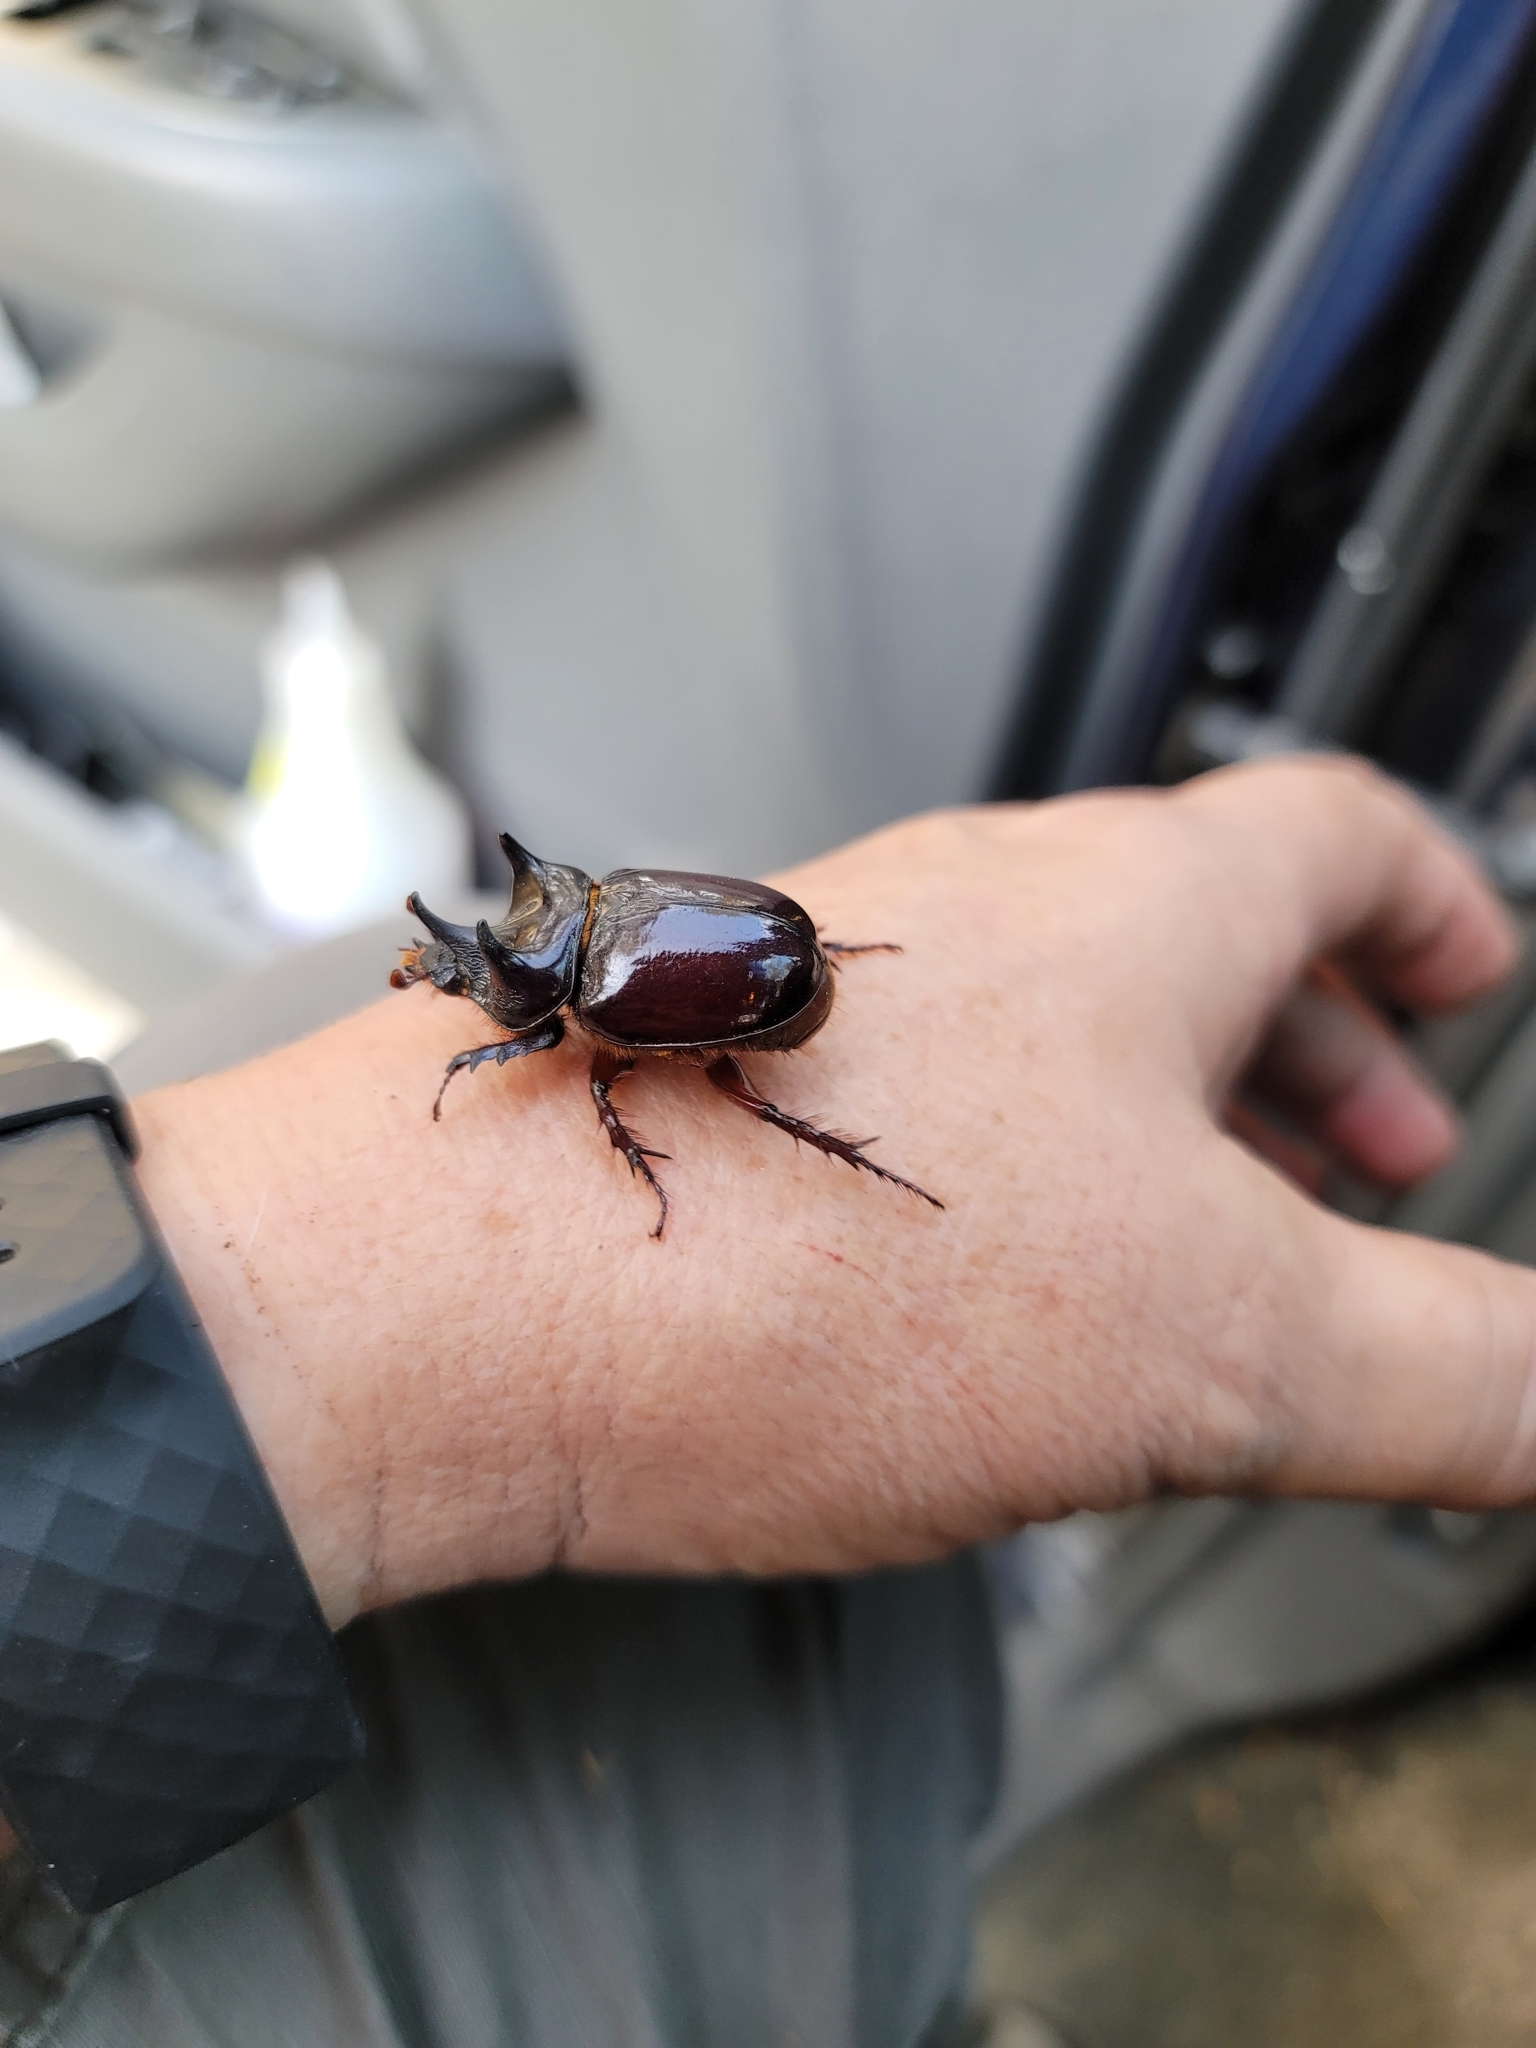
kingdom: Animalia
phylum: Arthropoda
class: Insecta
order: Coleoptera
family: Scarabaeidae
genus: Strategus
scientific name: Strategus antaeus
